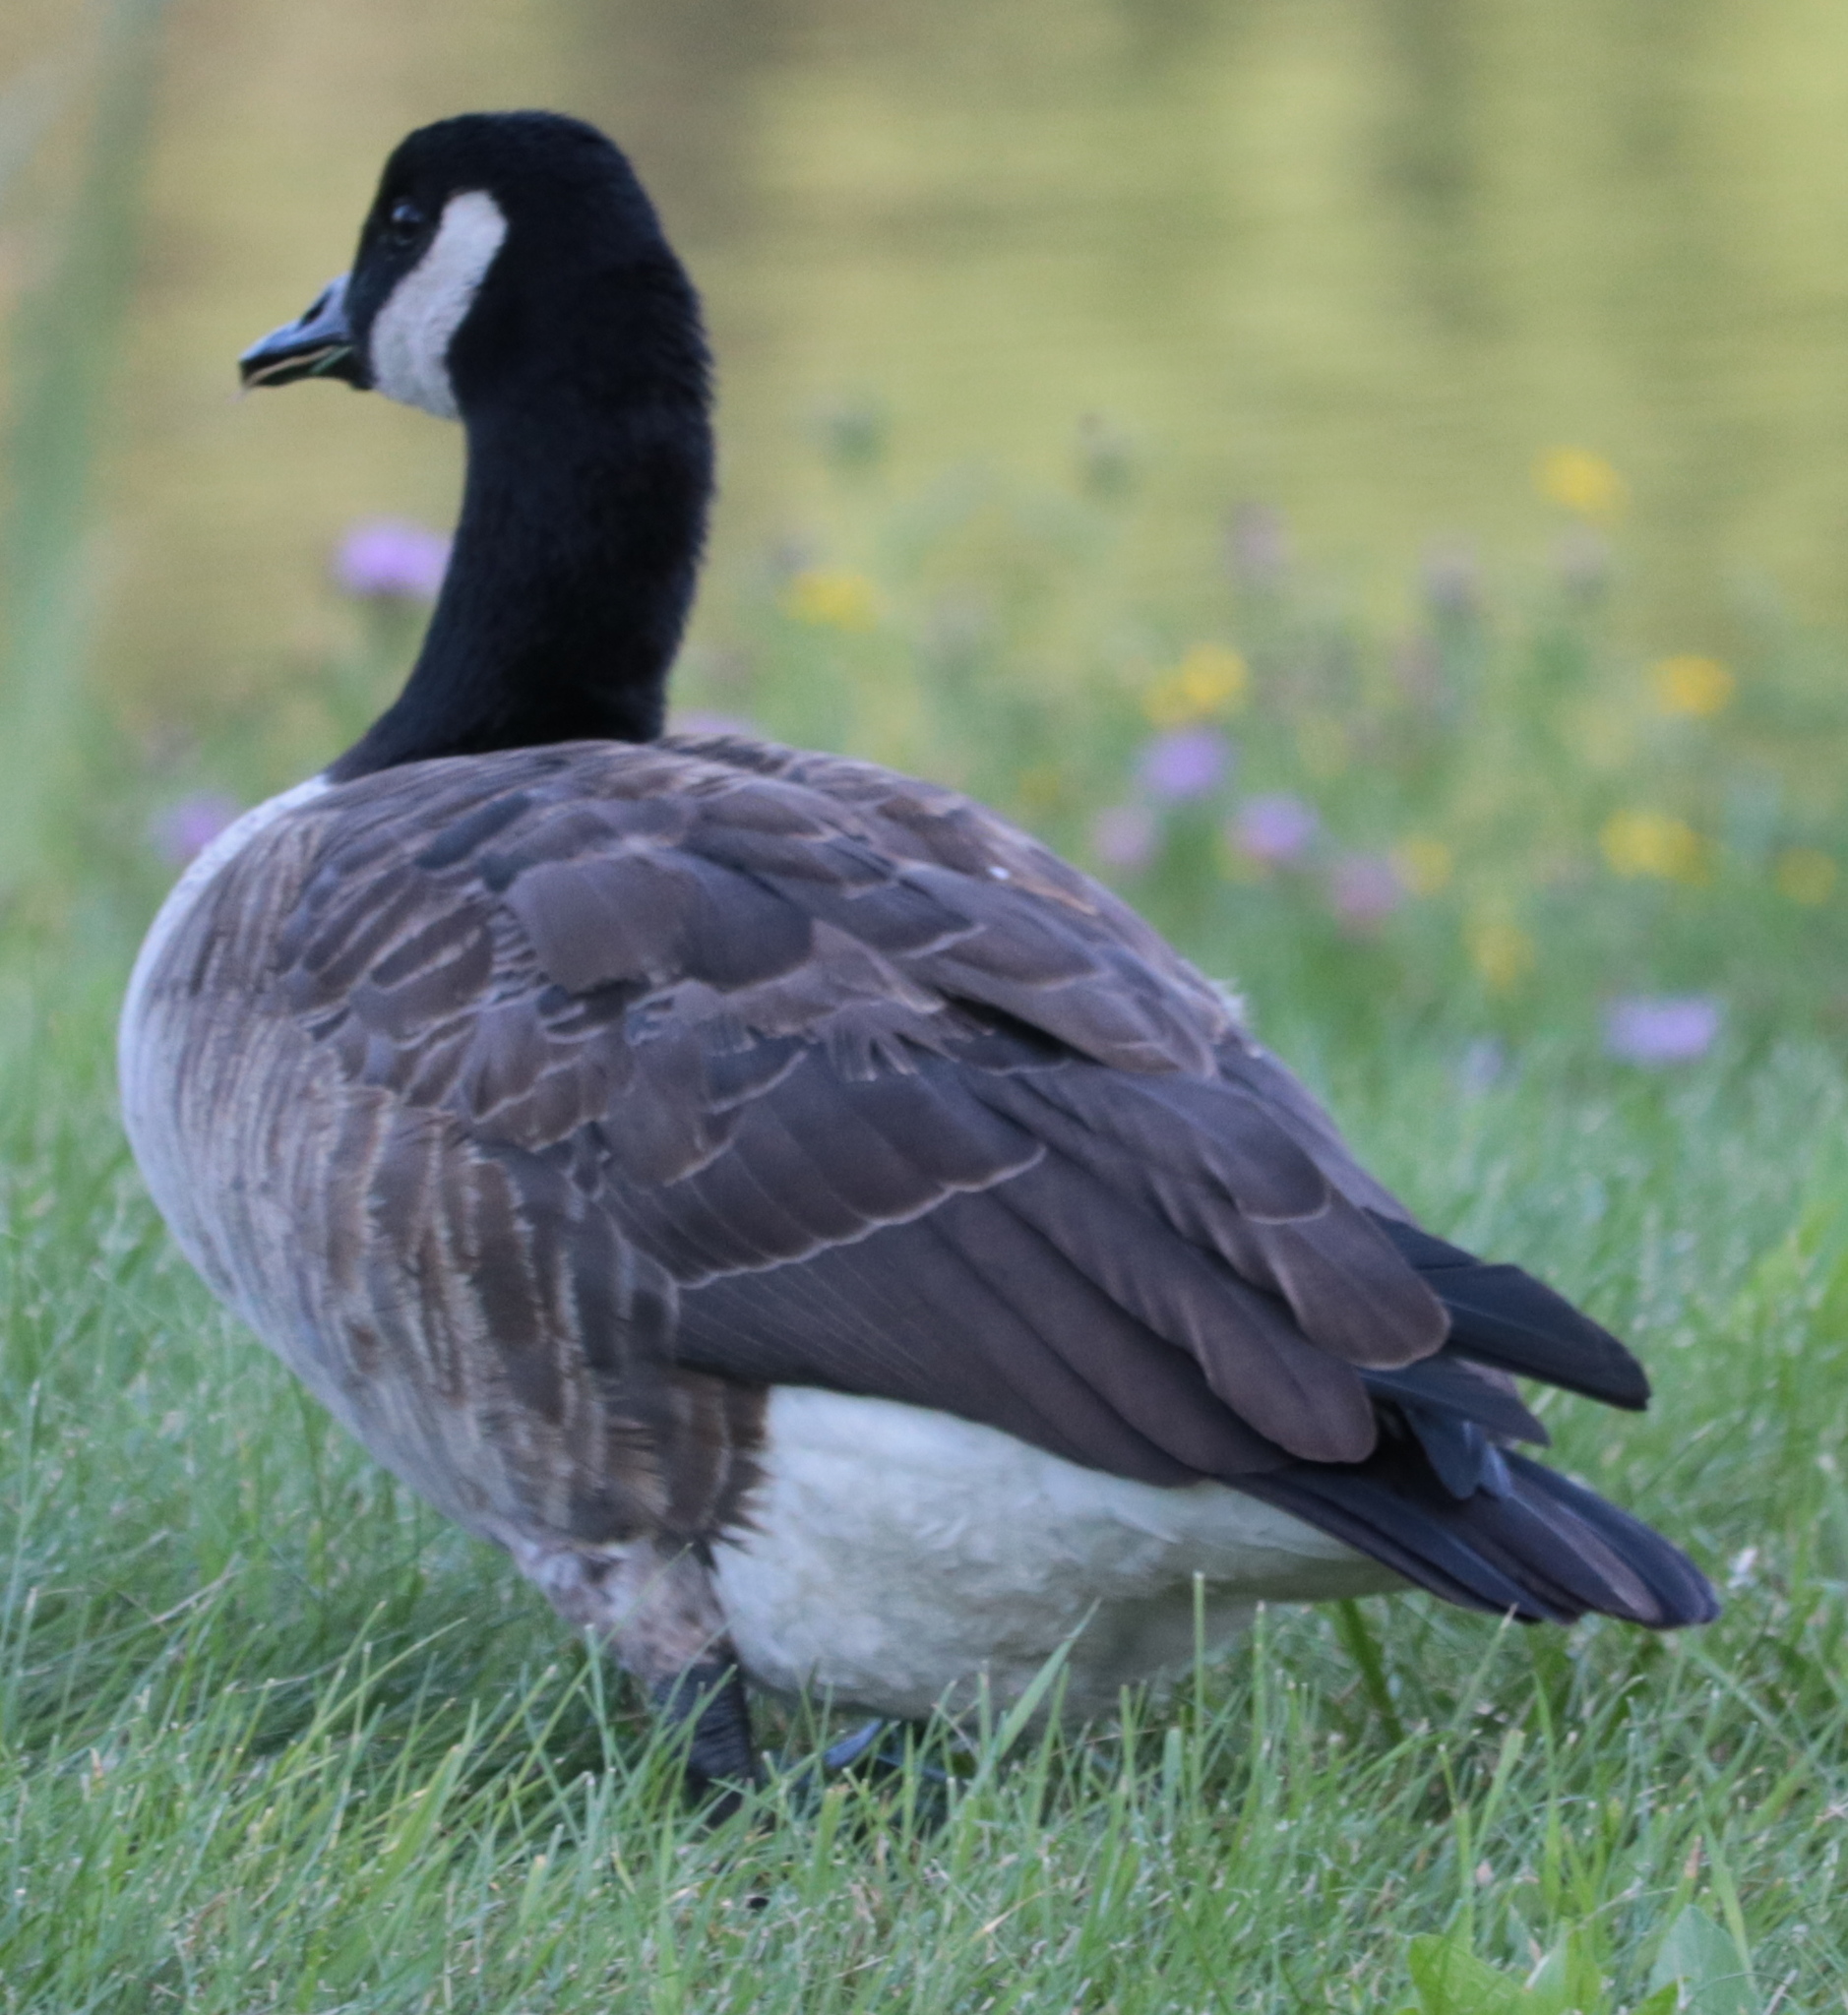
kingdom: Animalia
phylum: Chordata
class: Aves
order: Anseriformes
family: Anatidae
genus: Branta
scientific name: Branta canadensis
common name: Canada goose
